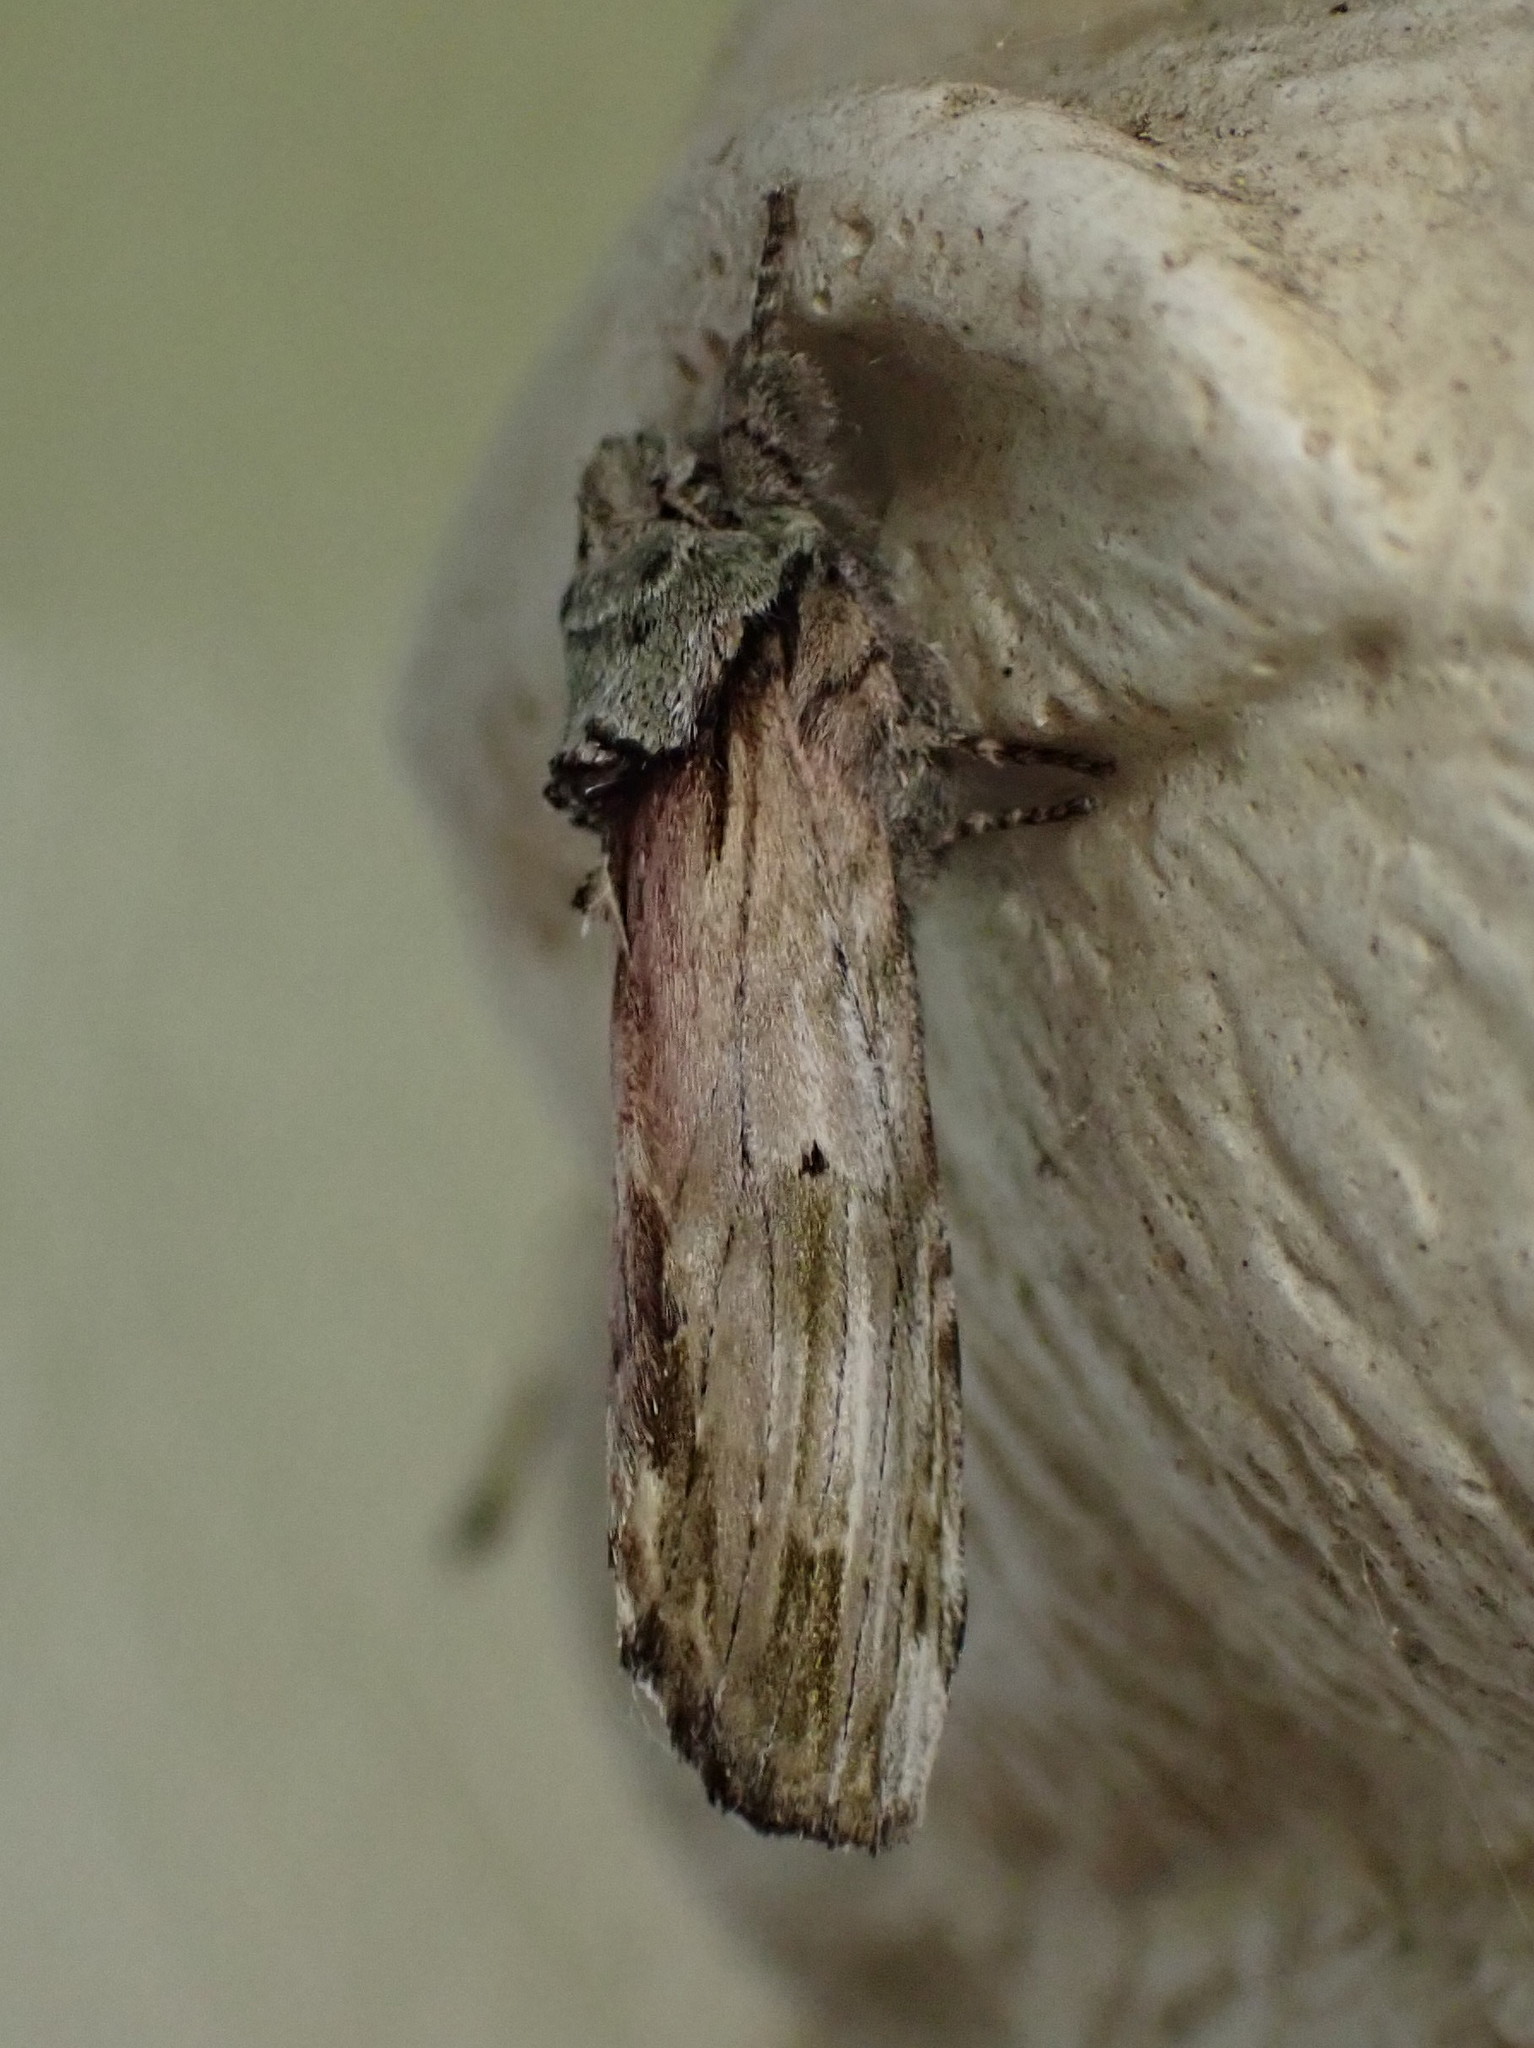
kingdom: Animalia
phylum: Arthropoda
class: Insecta
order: Lepidoptera
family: Notodontidae
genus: Schizura
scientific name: Schizura
